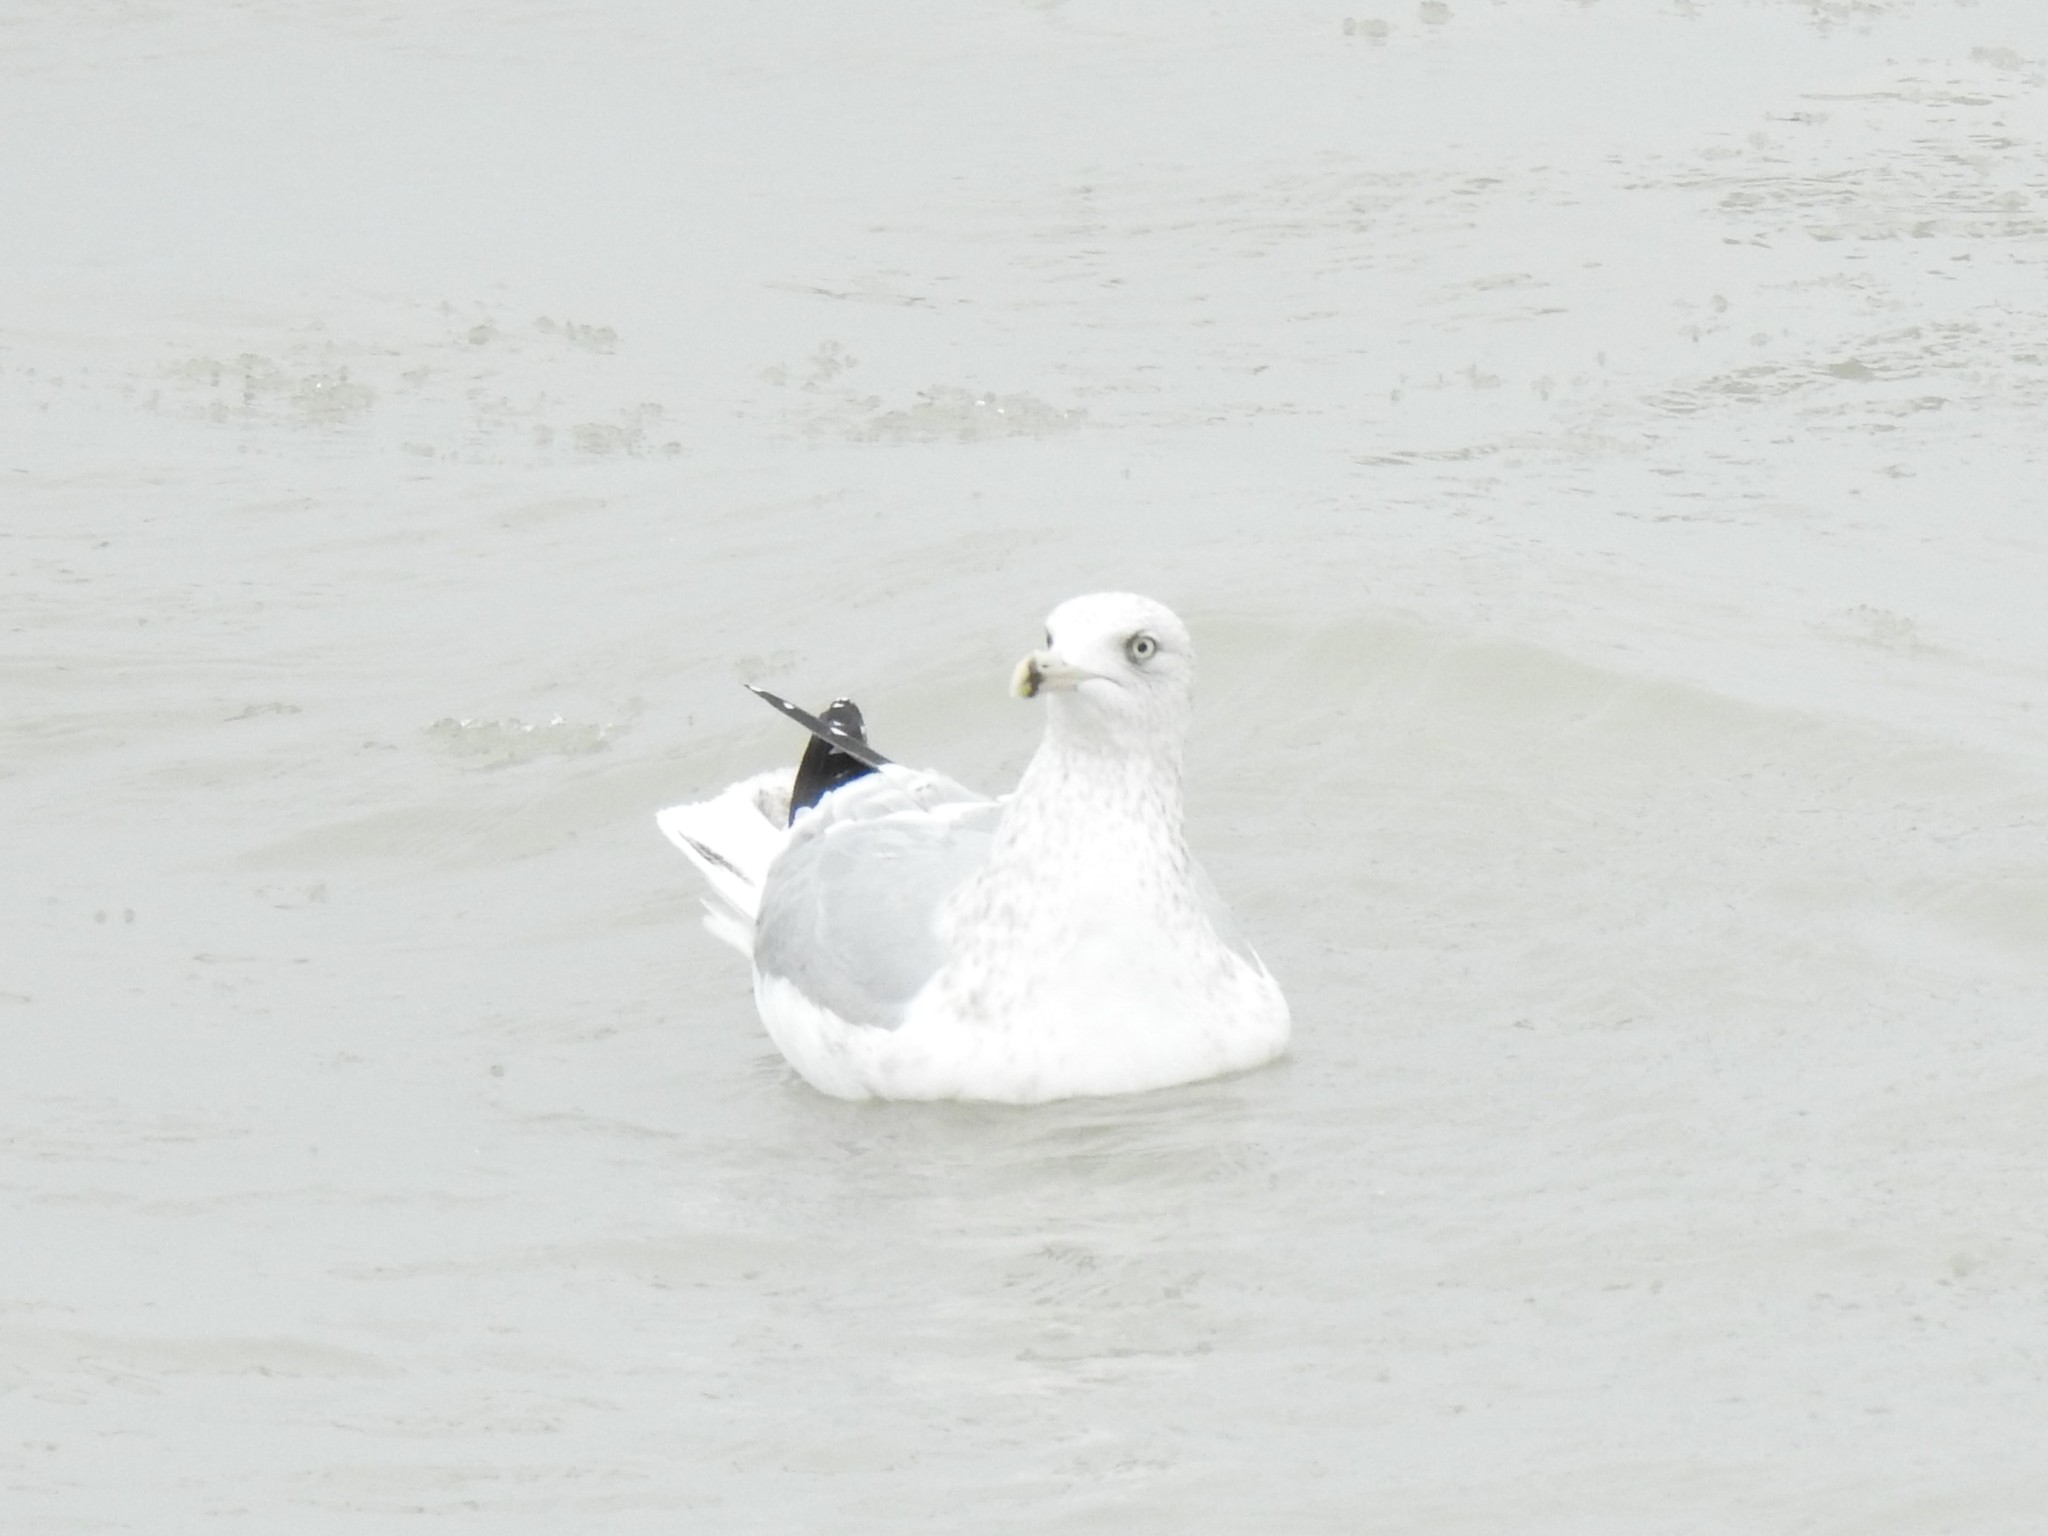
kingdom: Animalia
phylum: Chordata
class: Aves
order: Charadriiformes
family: Laridae
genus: Larus
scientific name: Larus argentatus
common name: Herring gull
